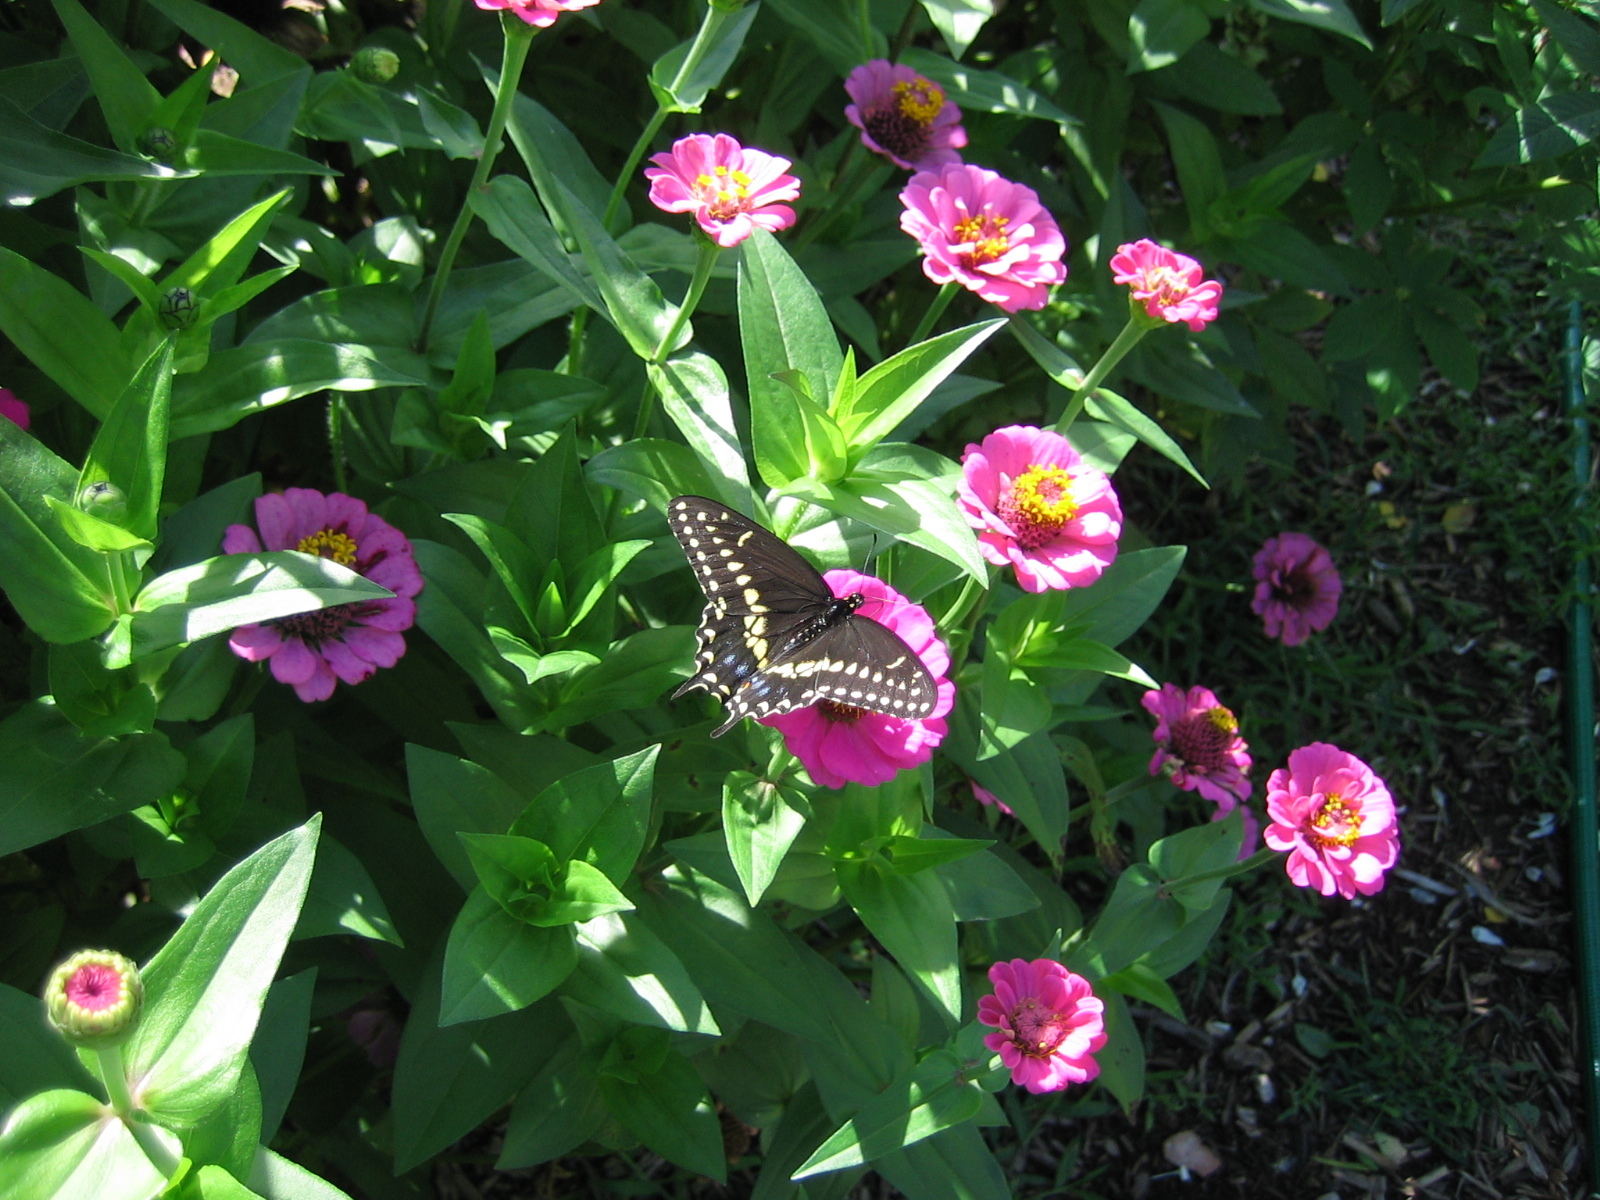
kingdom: Animalia
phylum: Arthropoda
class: Insecta
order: Lepidoptera
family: Papilionidae
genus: Papilio
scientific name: Papilio polyxenes
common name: Black swallowtail
